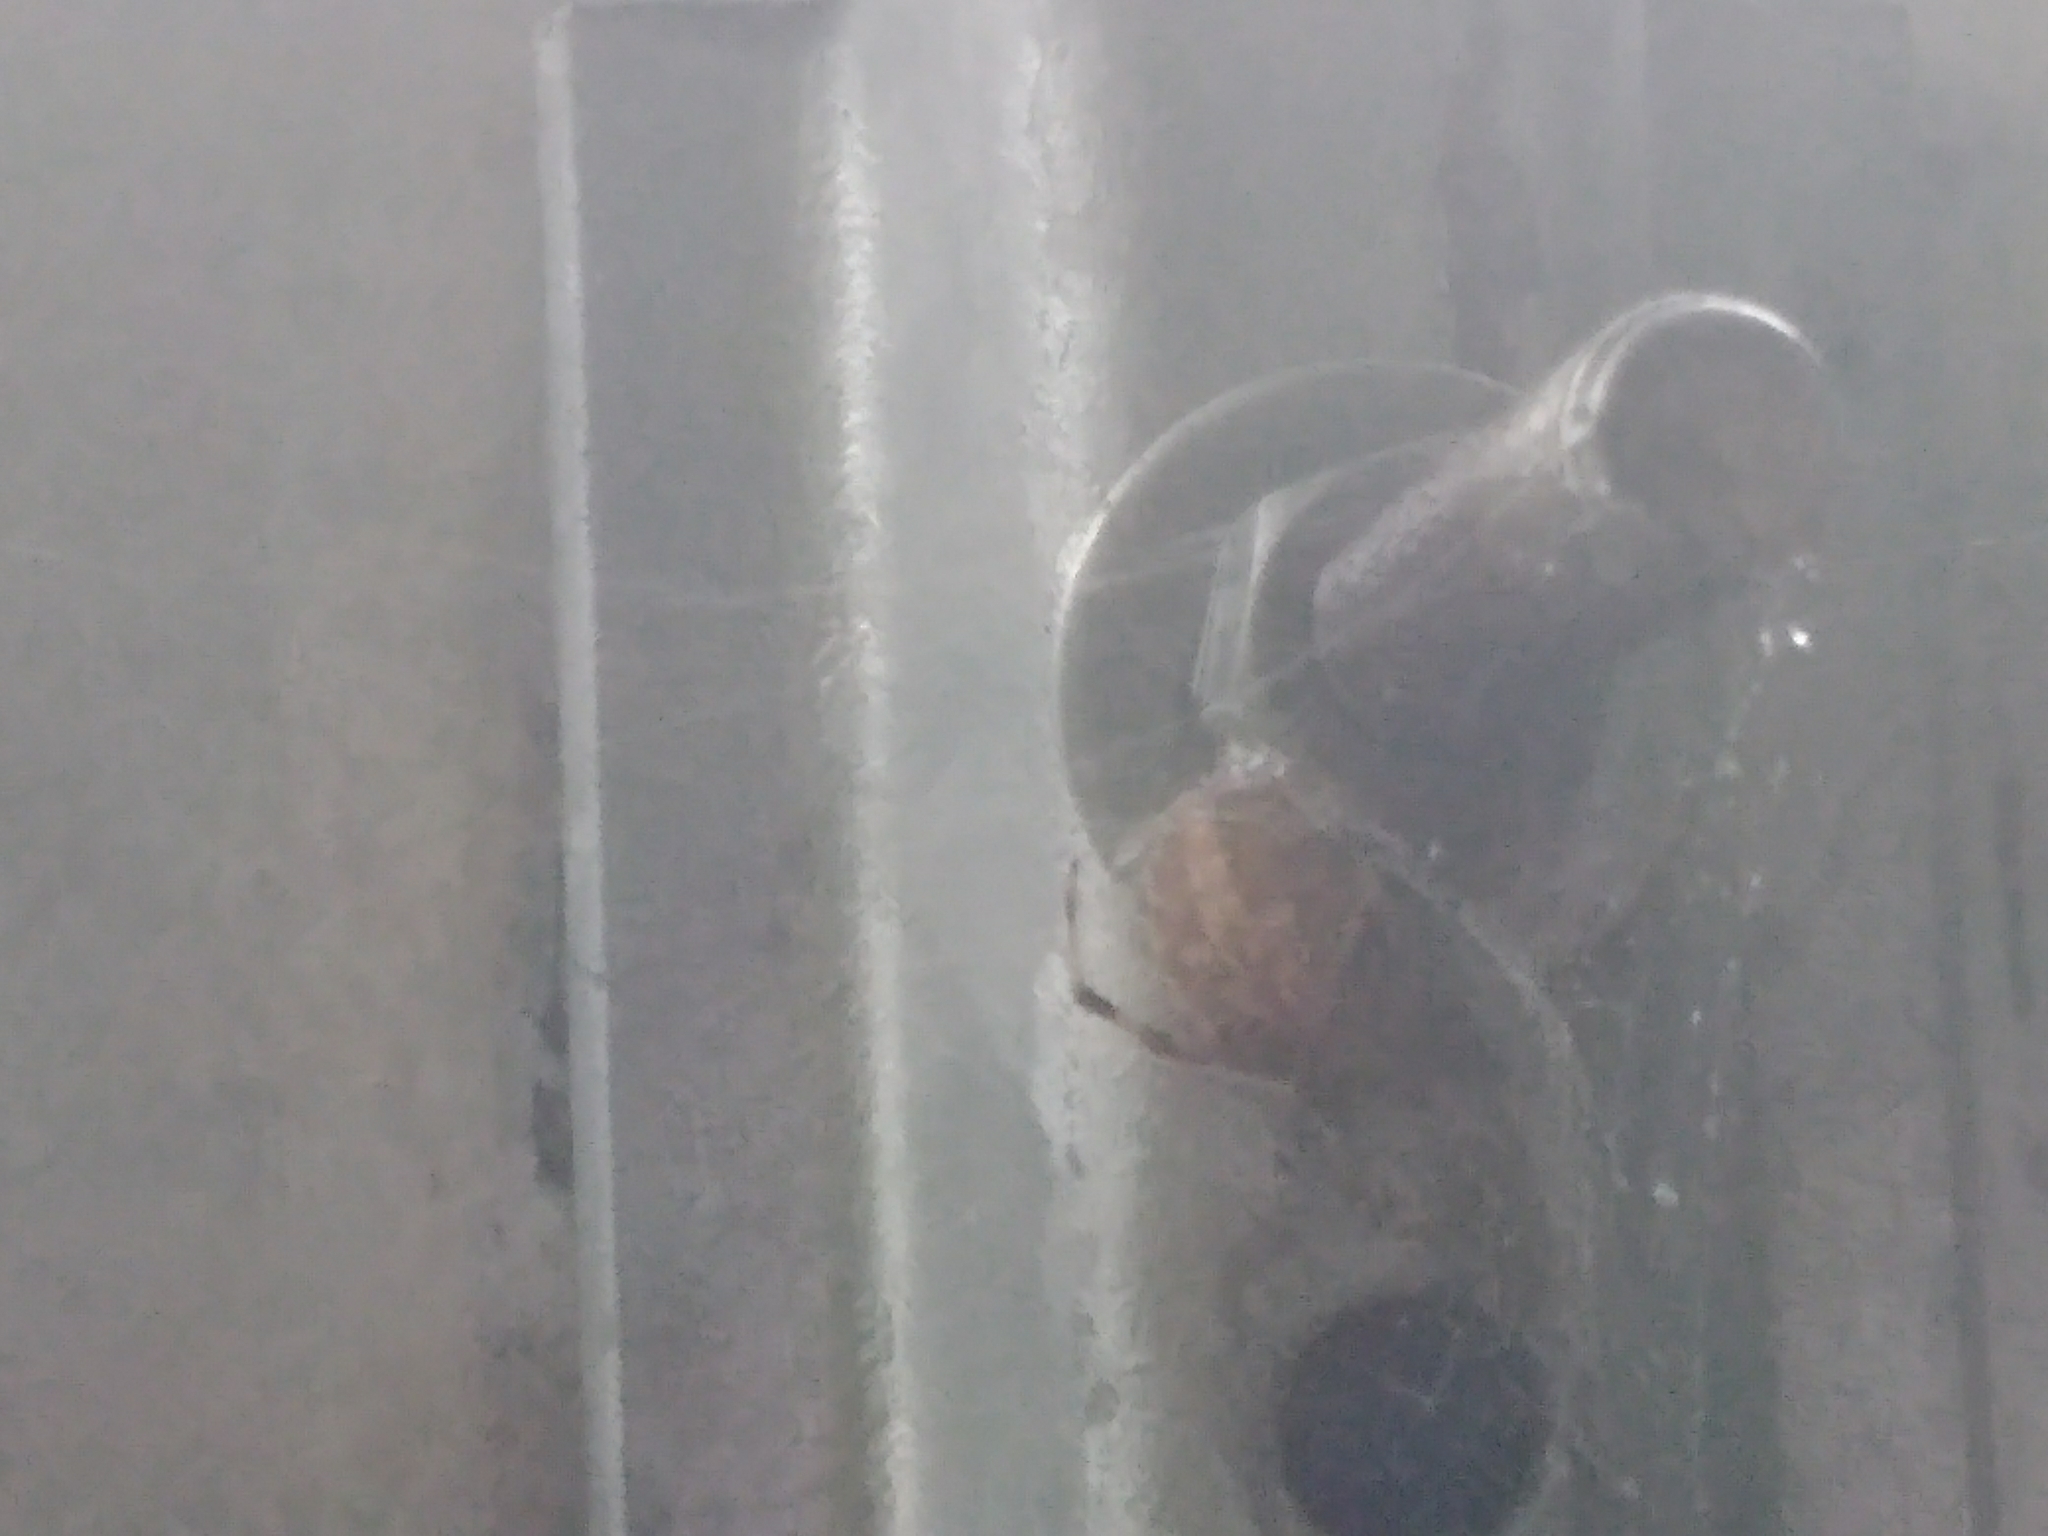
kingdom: Animalia
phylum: Arthropoda
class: Arachnida
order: Araneae
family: Araneidae
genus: Neoscona
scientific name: Neoscona crucifera
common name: Spotted orbweaver
